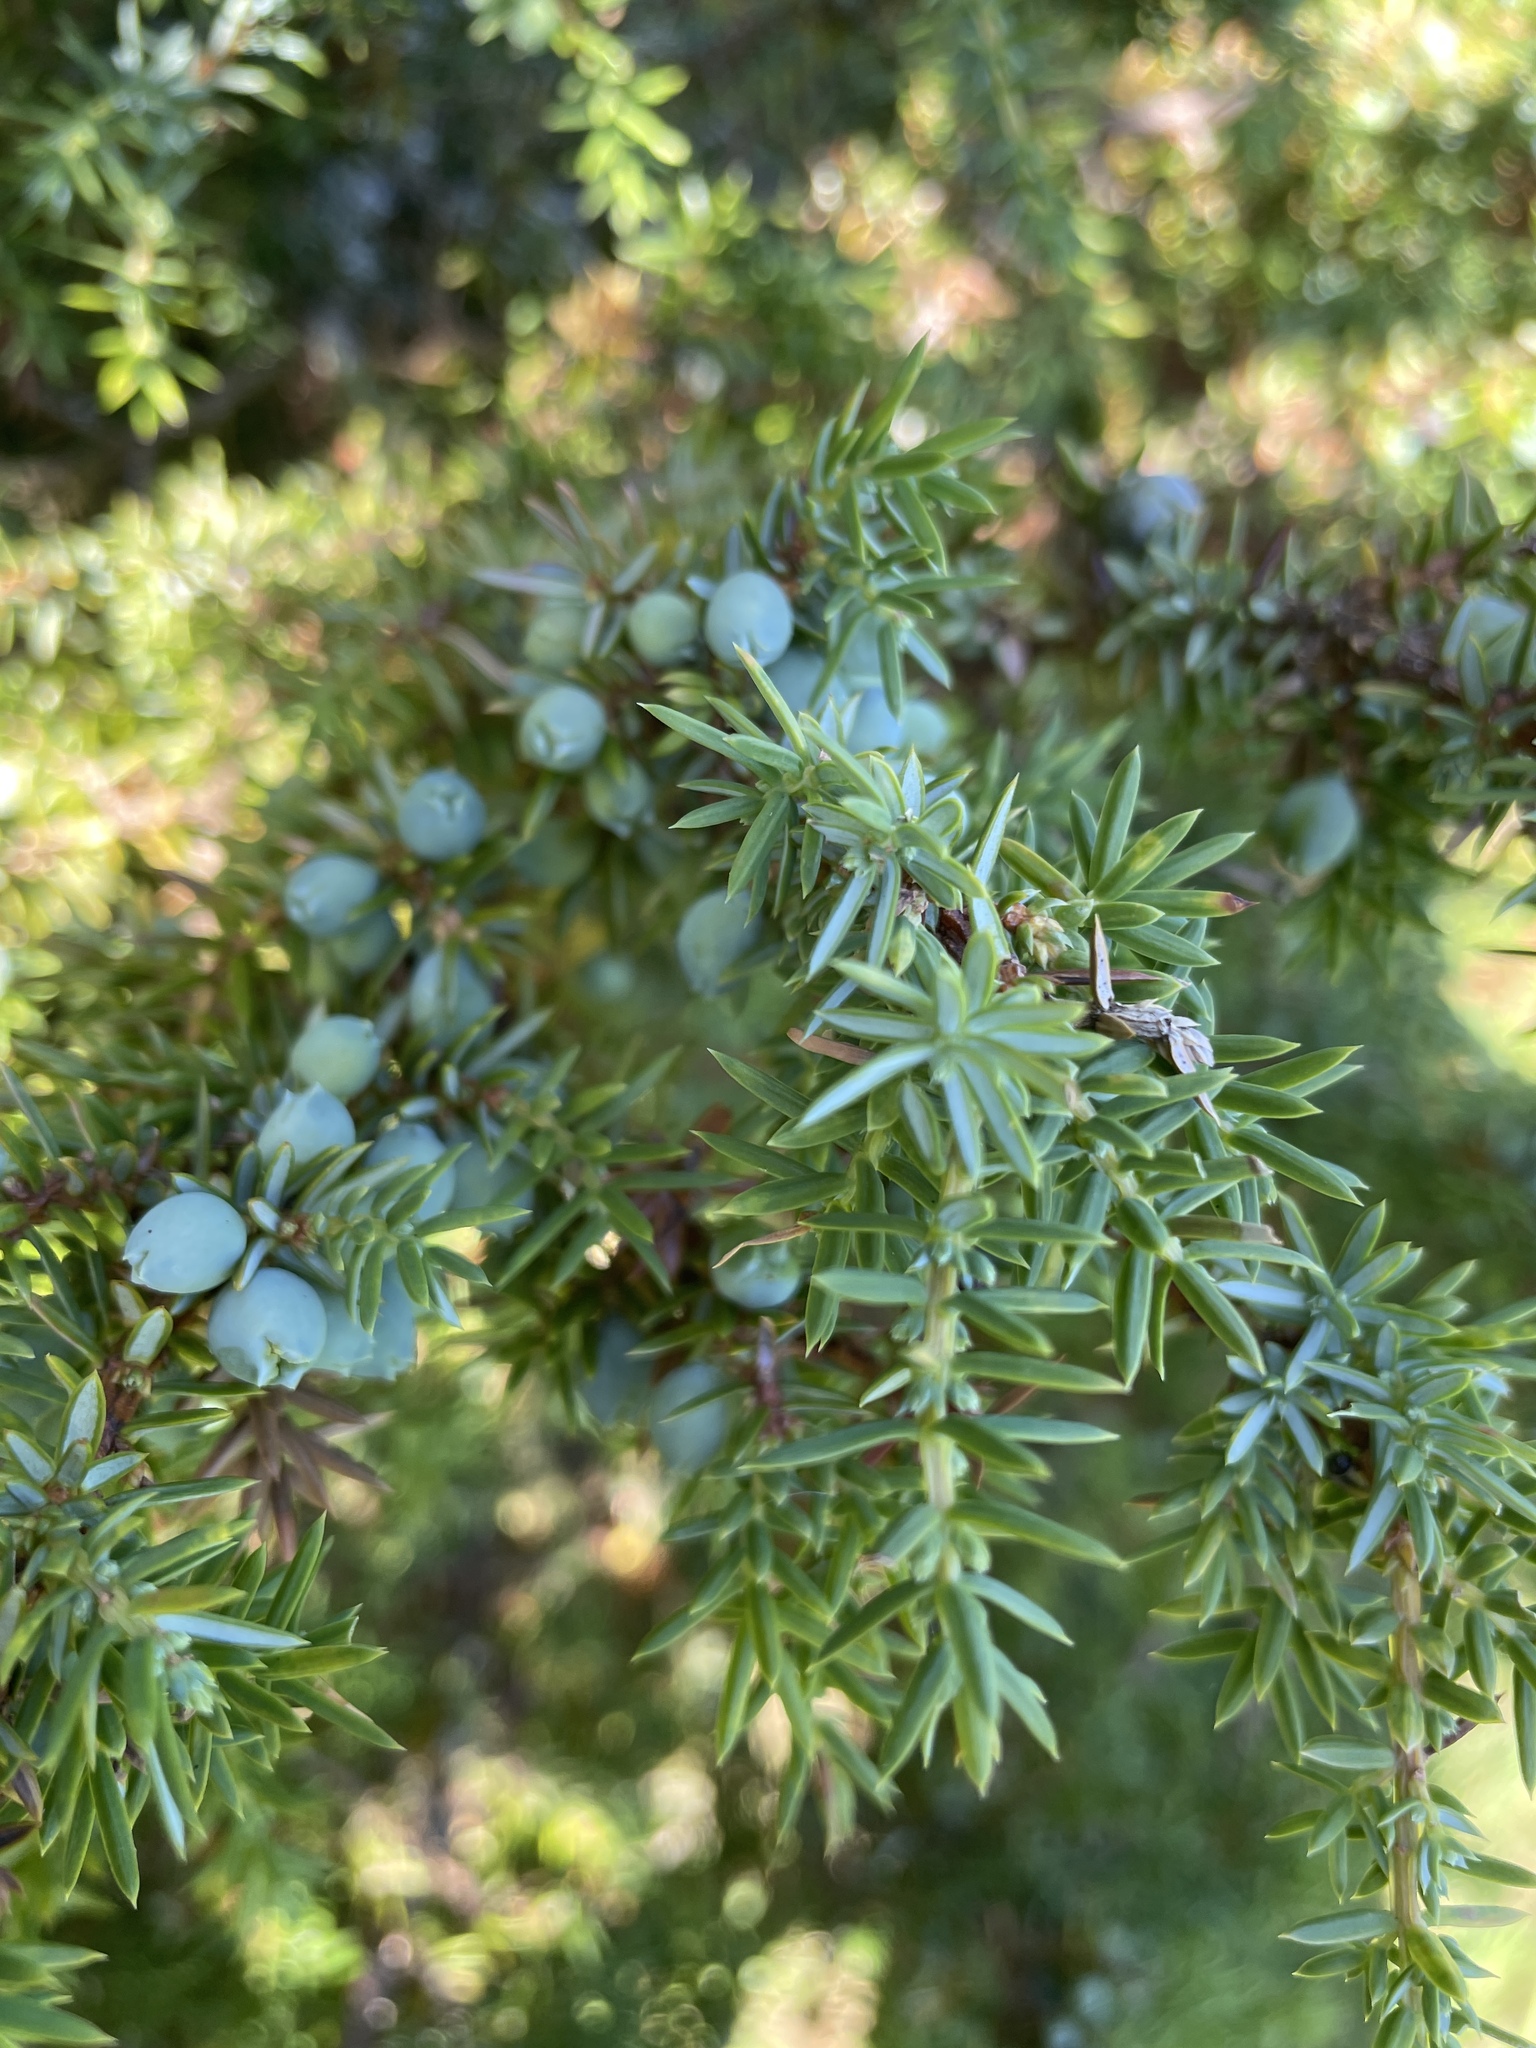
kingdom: Plantae
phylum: Tracheophyta
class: Pinopsida
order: Pinales
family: Cupressaceae
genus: Juniperus
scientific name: Juniperus communis
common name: Common juniper
